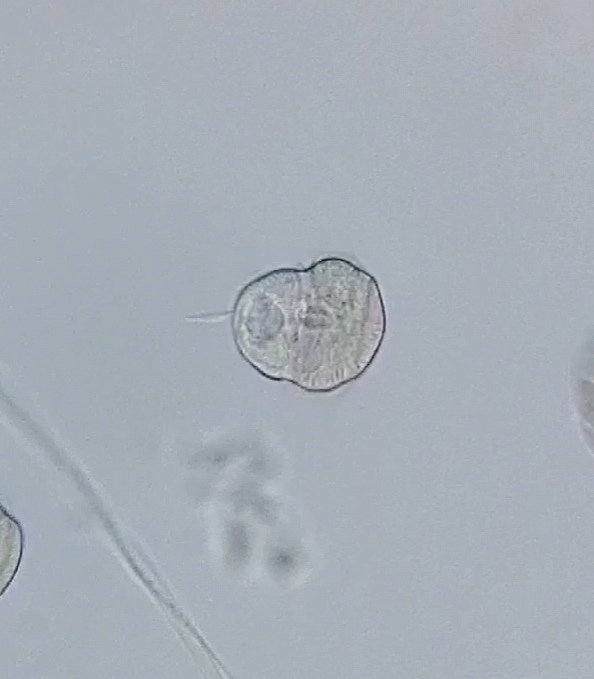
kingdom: Chromista
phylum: Ciliophora
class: Oligohymenophorea
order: Hymenostomatida
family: Urocentridae
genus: Urocentrum
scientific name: Urocentrum turbo
